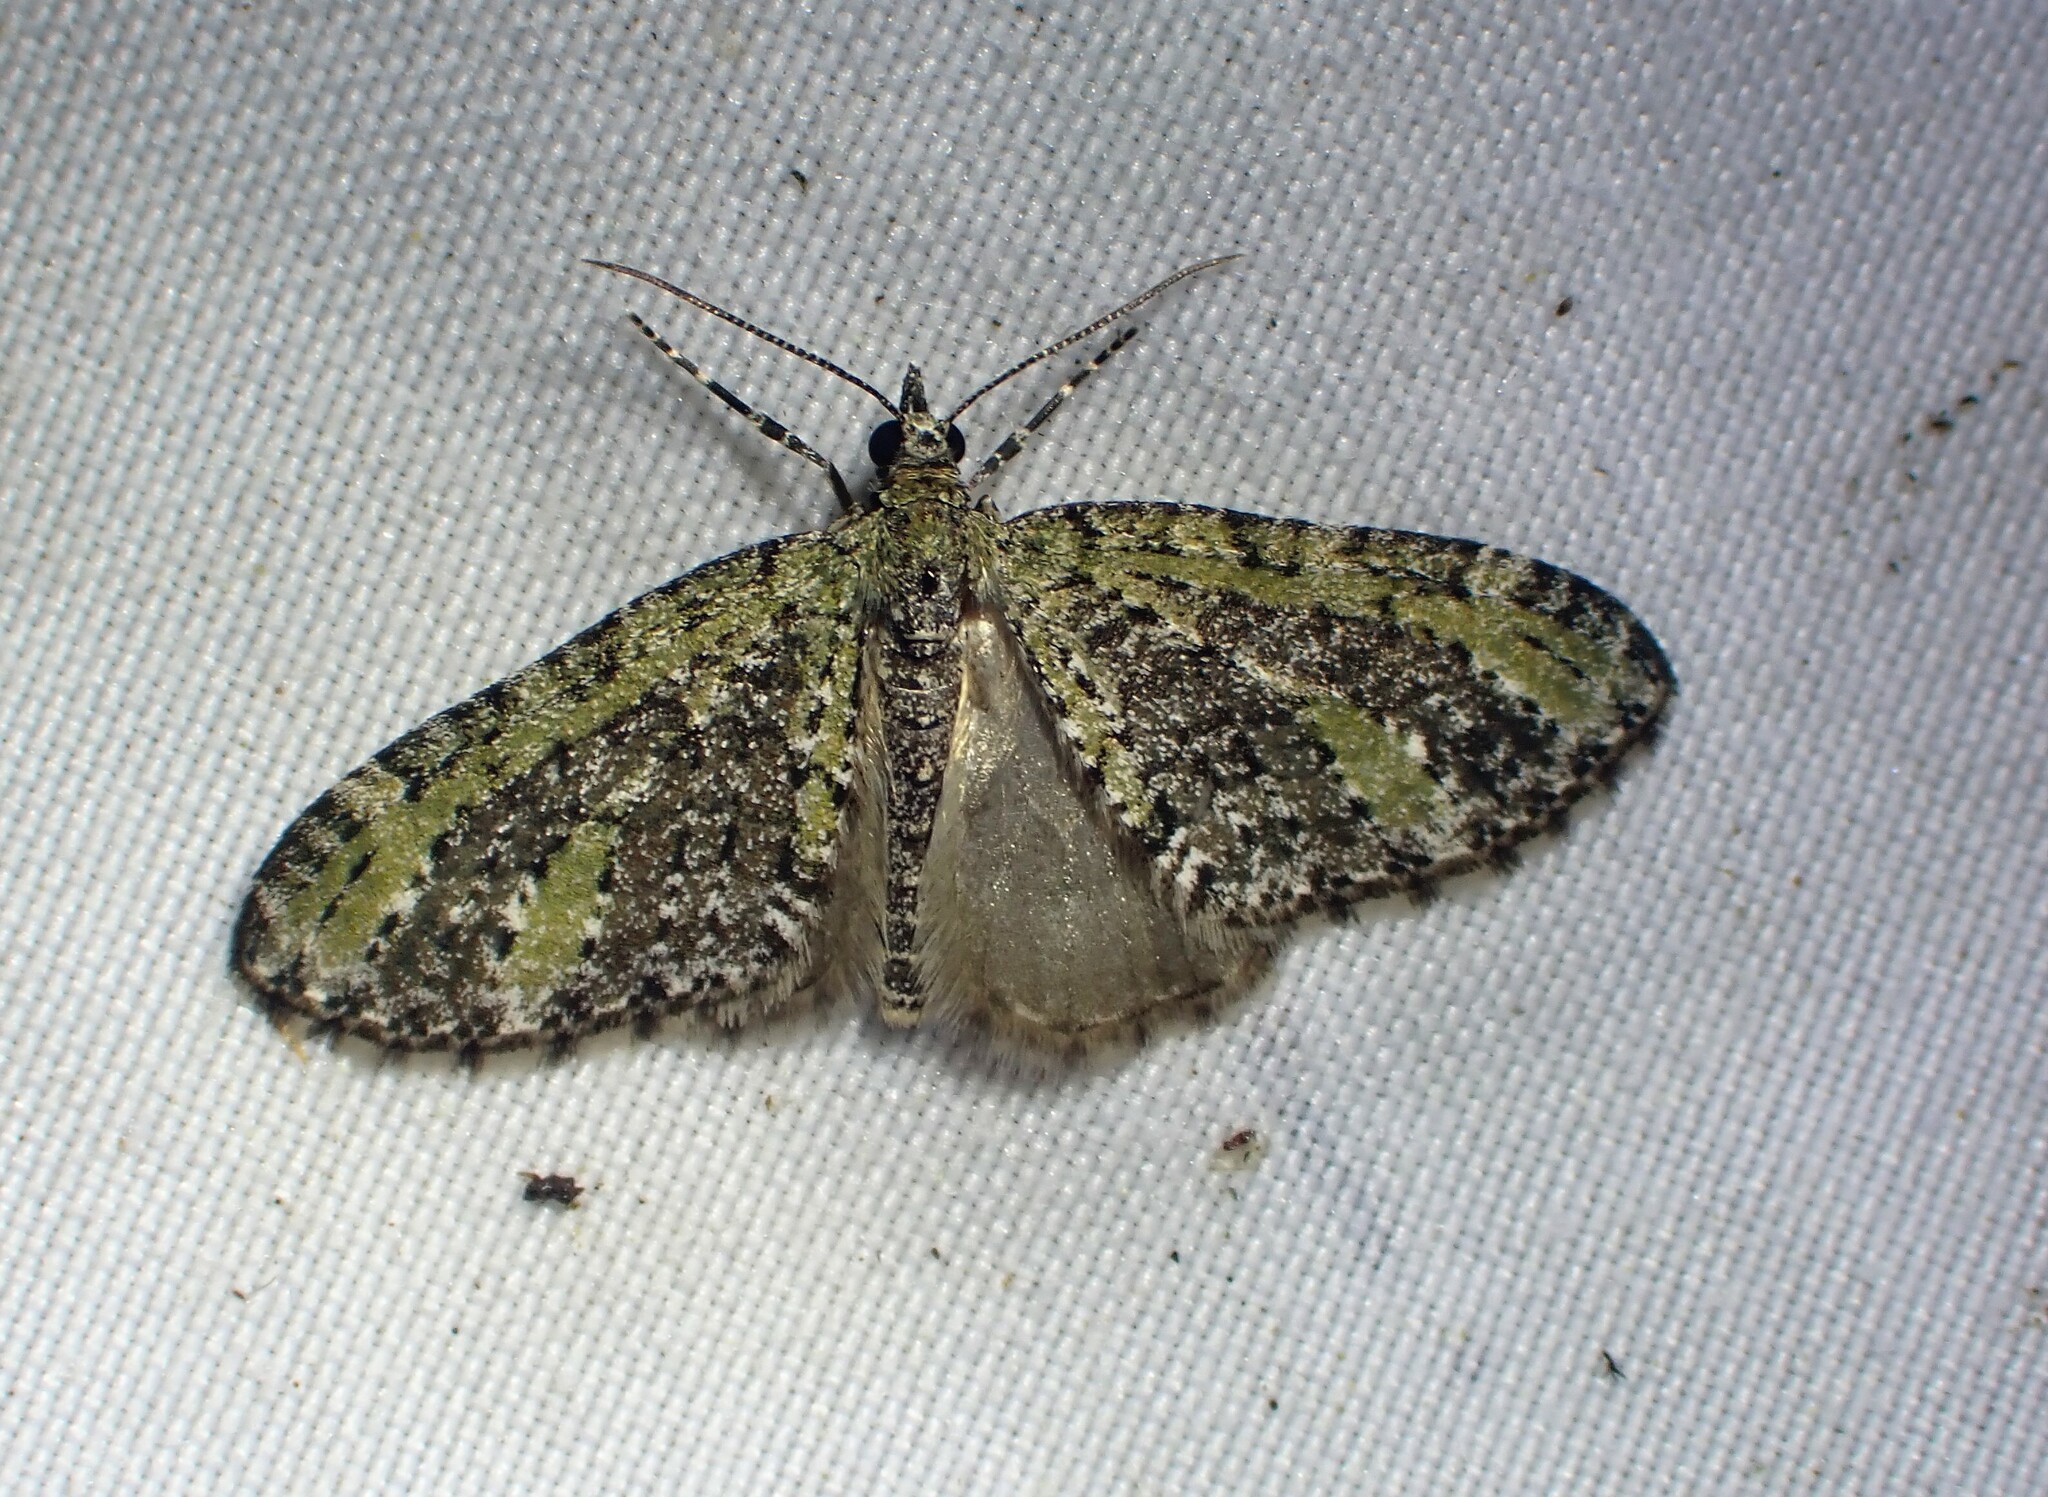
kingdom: Animalia
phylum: Arthropoda
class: Insecta
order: Lepidoptera
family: Geometridae
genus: Acasis
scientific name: Acasis viridata
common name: Olive-and-black carpet moth
